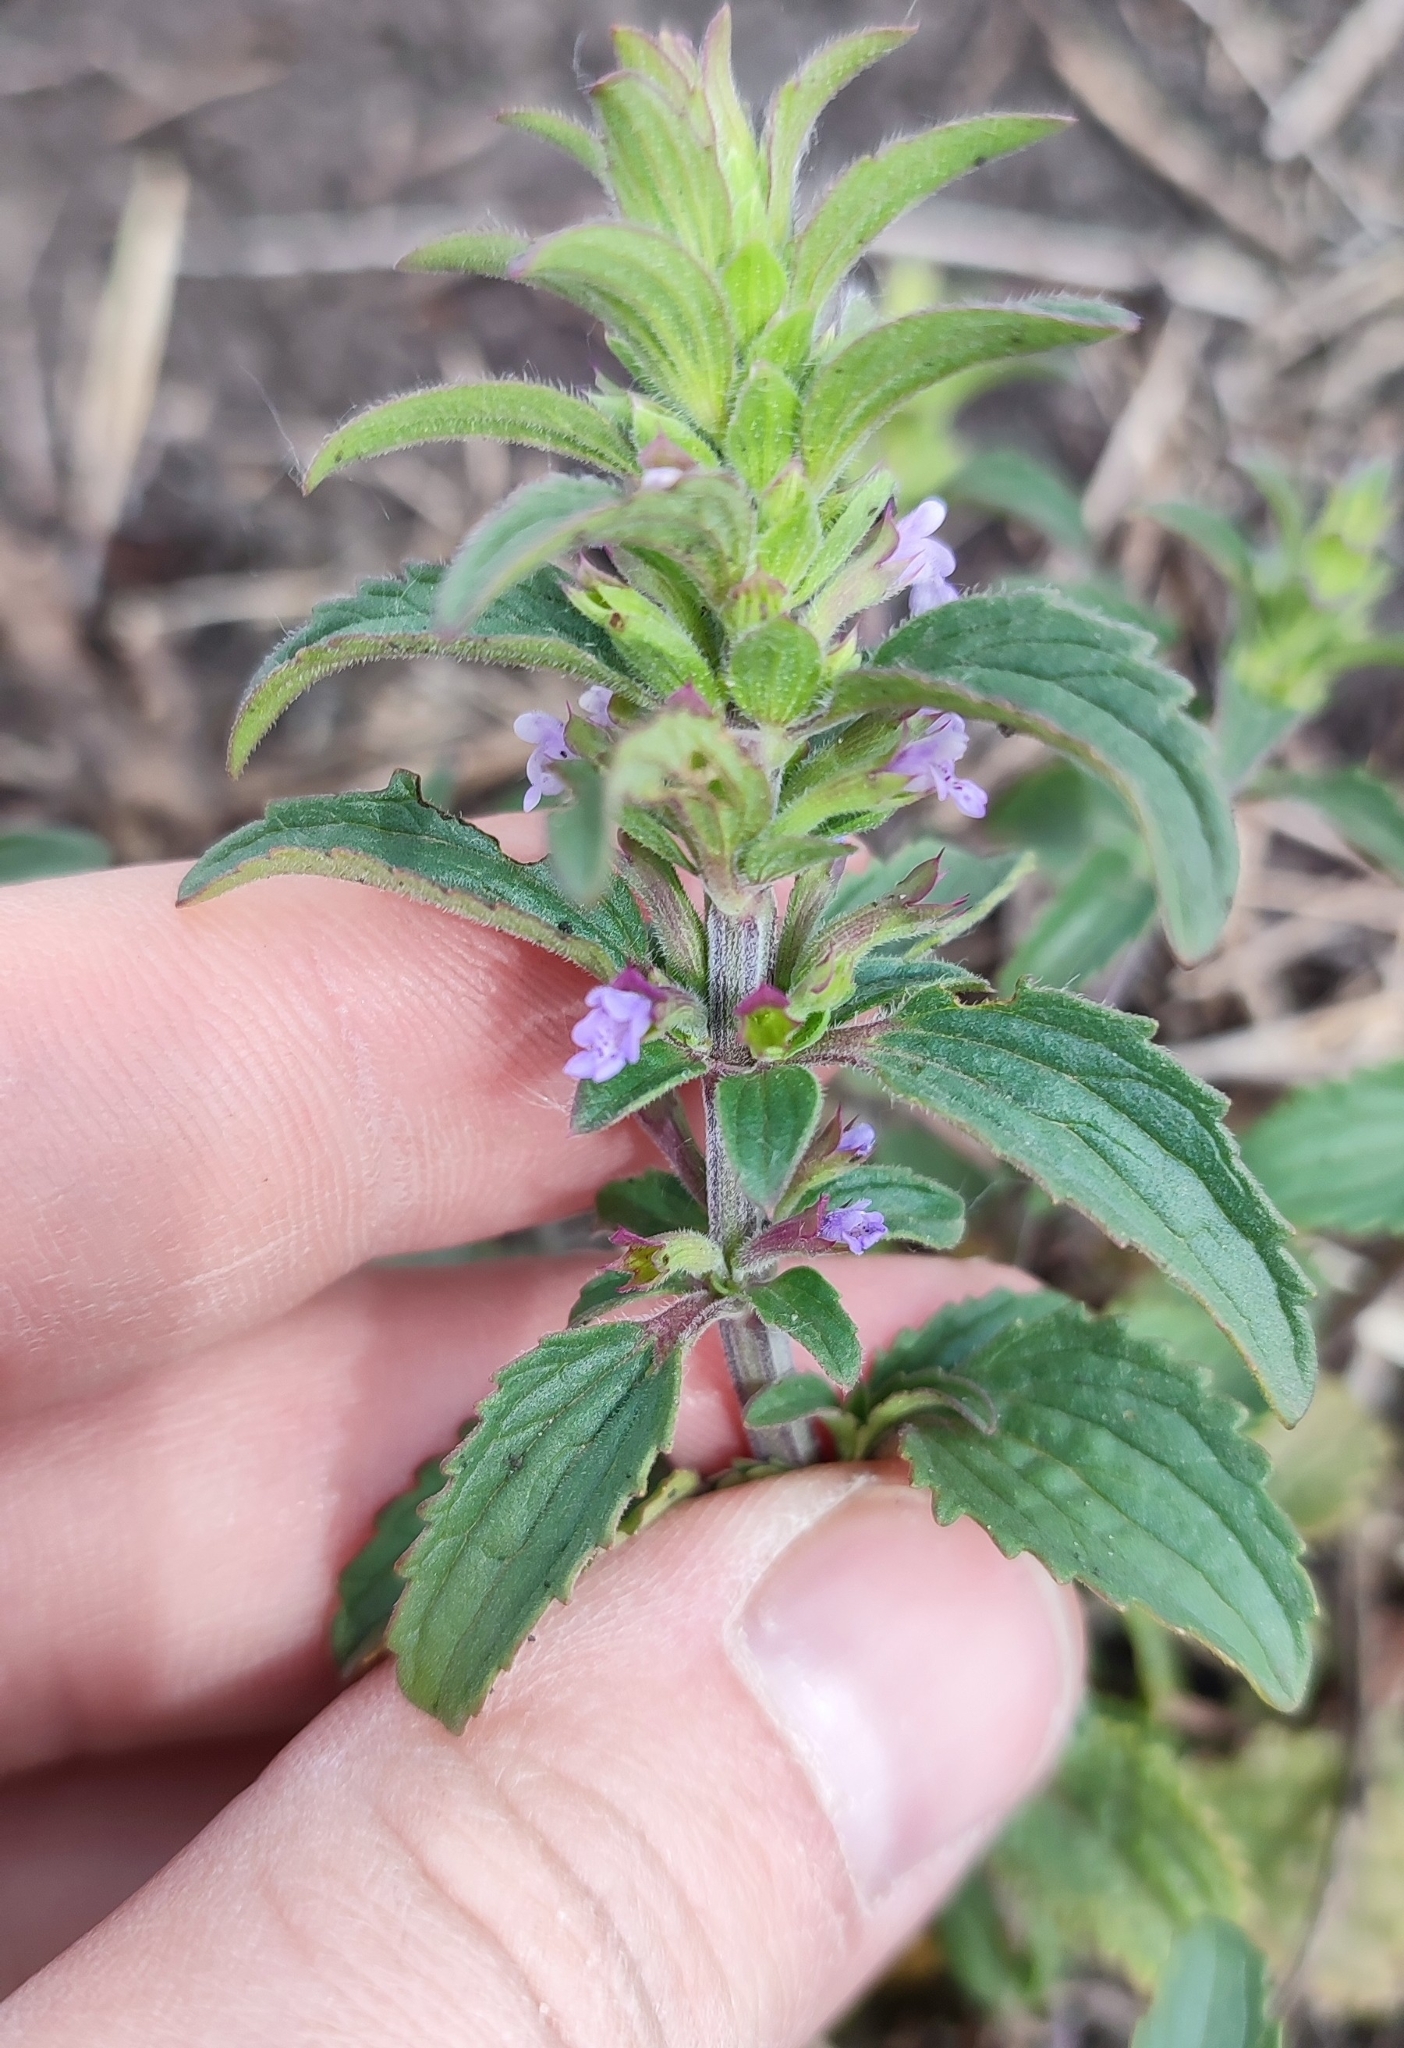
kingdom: Plantae
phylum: Tracheophyta
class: Magnoliopsida
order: Lamiales
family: Lamiaceae
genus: Dracocephalum
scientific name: Dracocephalum thymiflorum
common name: Thymeleaf dragonhead
